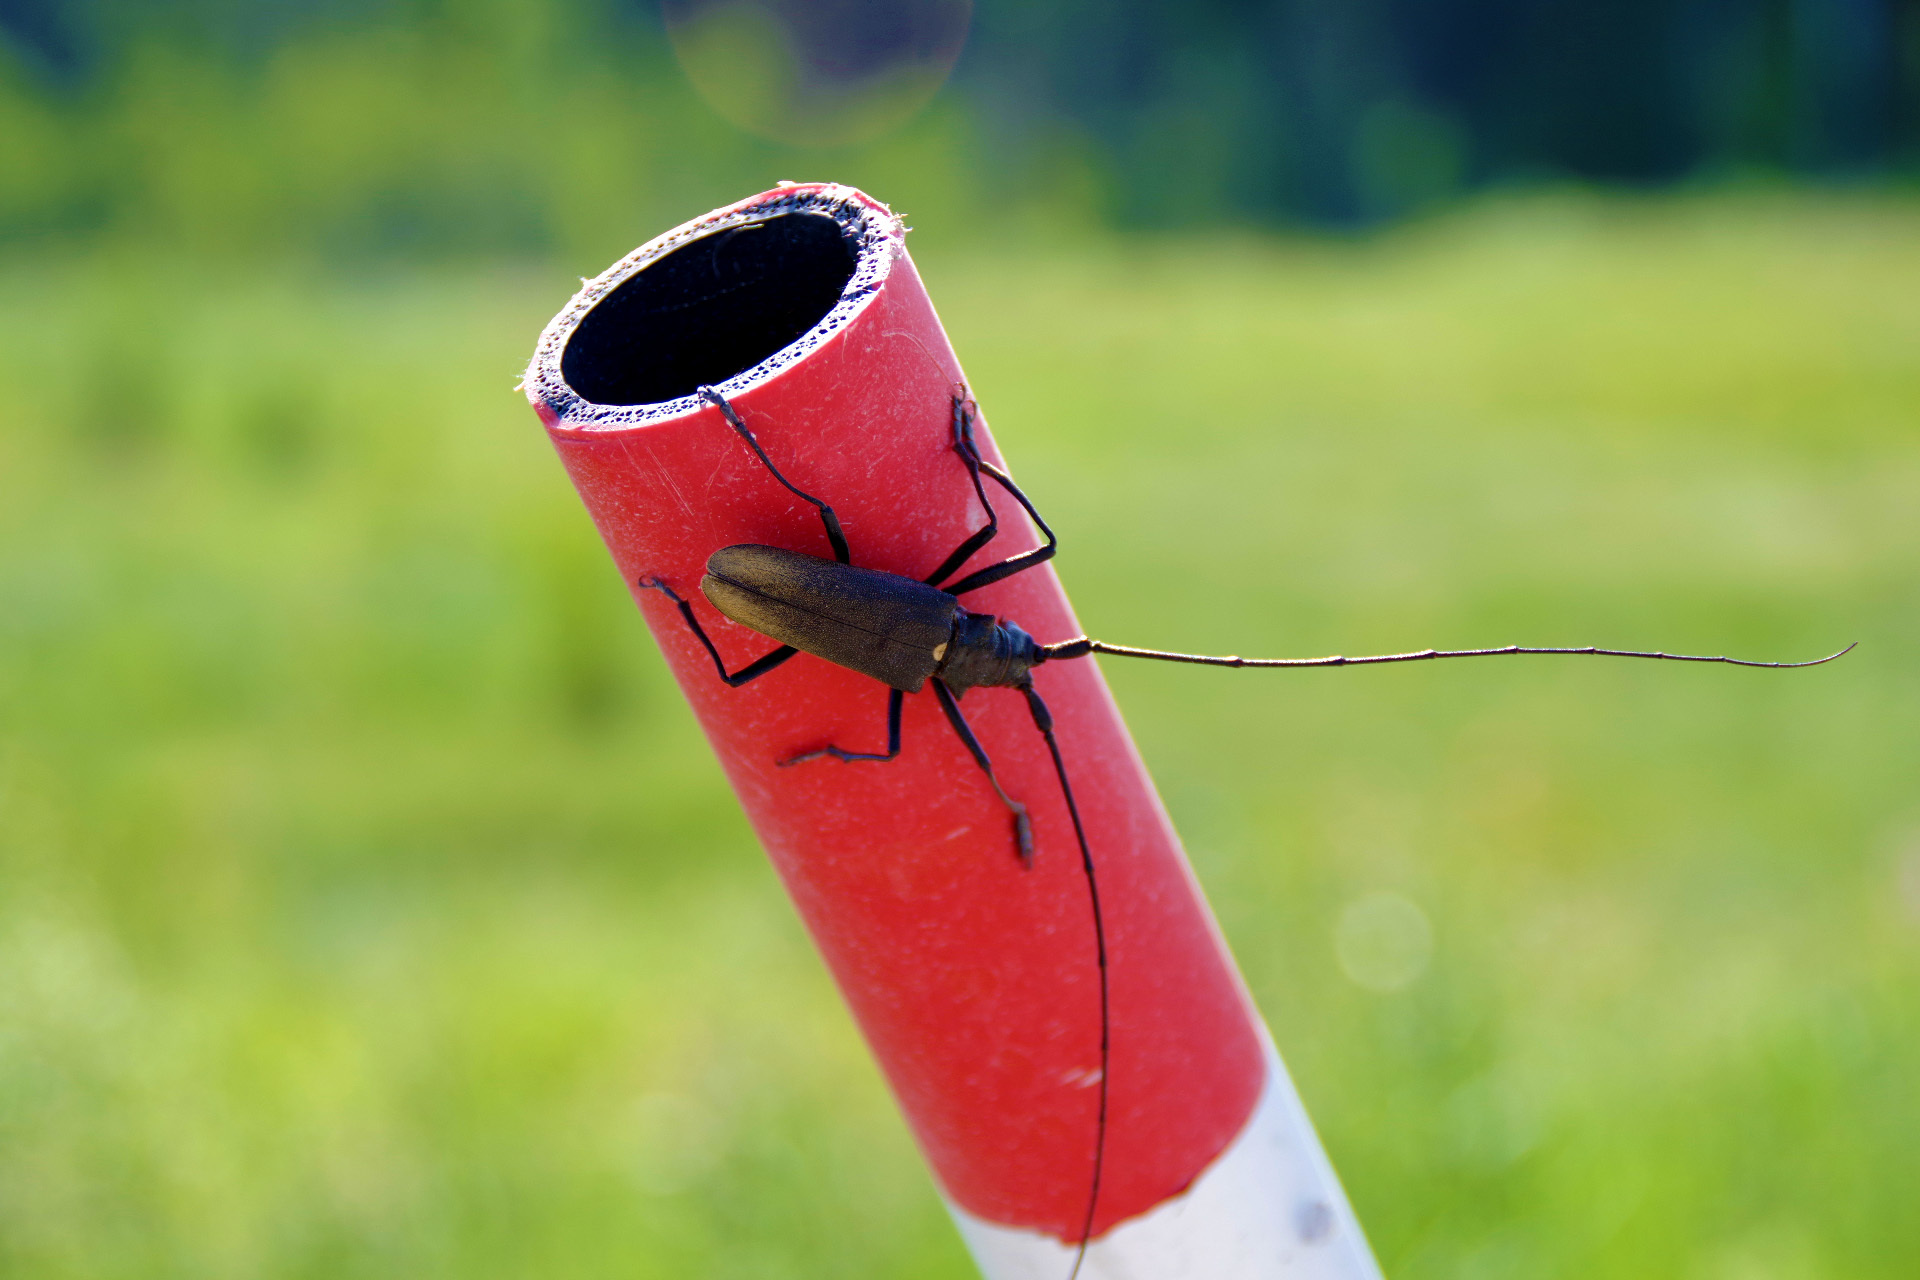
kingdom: Animalia
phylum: Arthropoda
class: Insecta
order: Coleoptera
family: Cerambycidae
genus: Monochamus
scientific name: Monochamus urussovii
